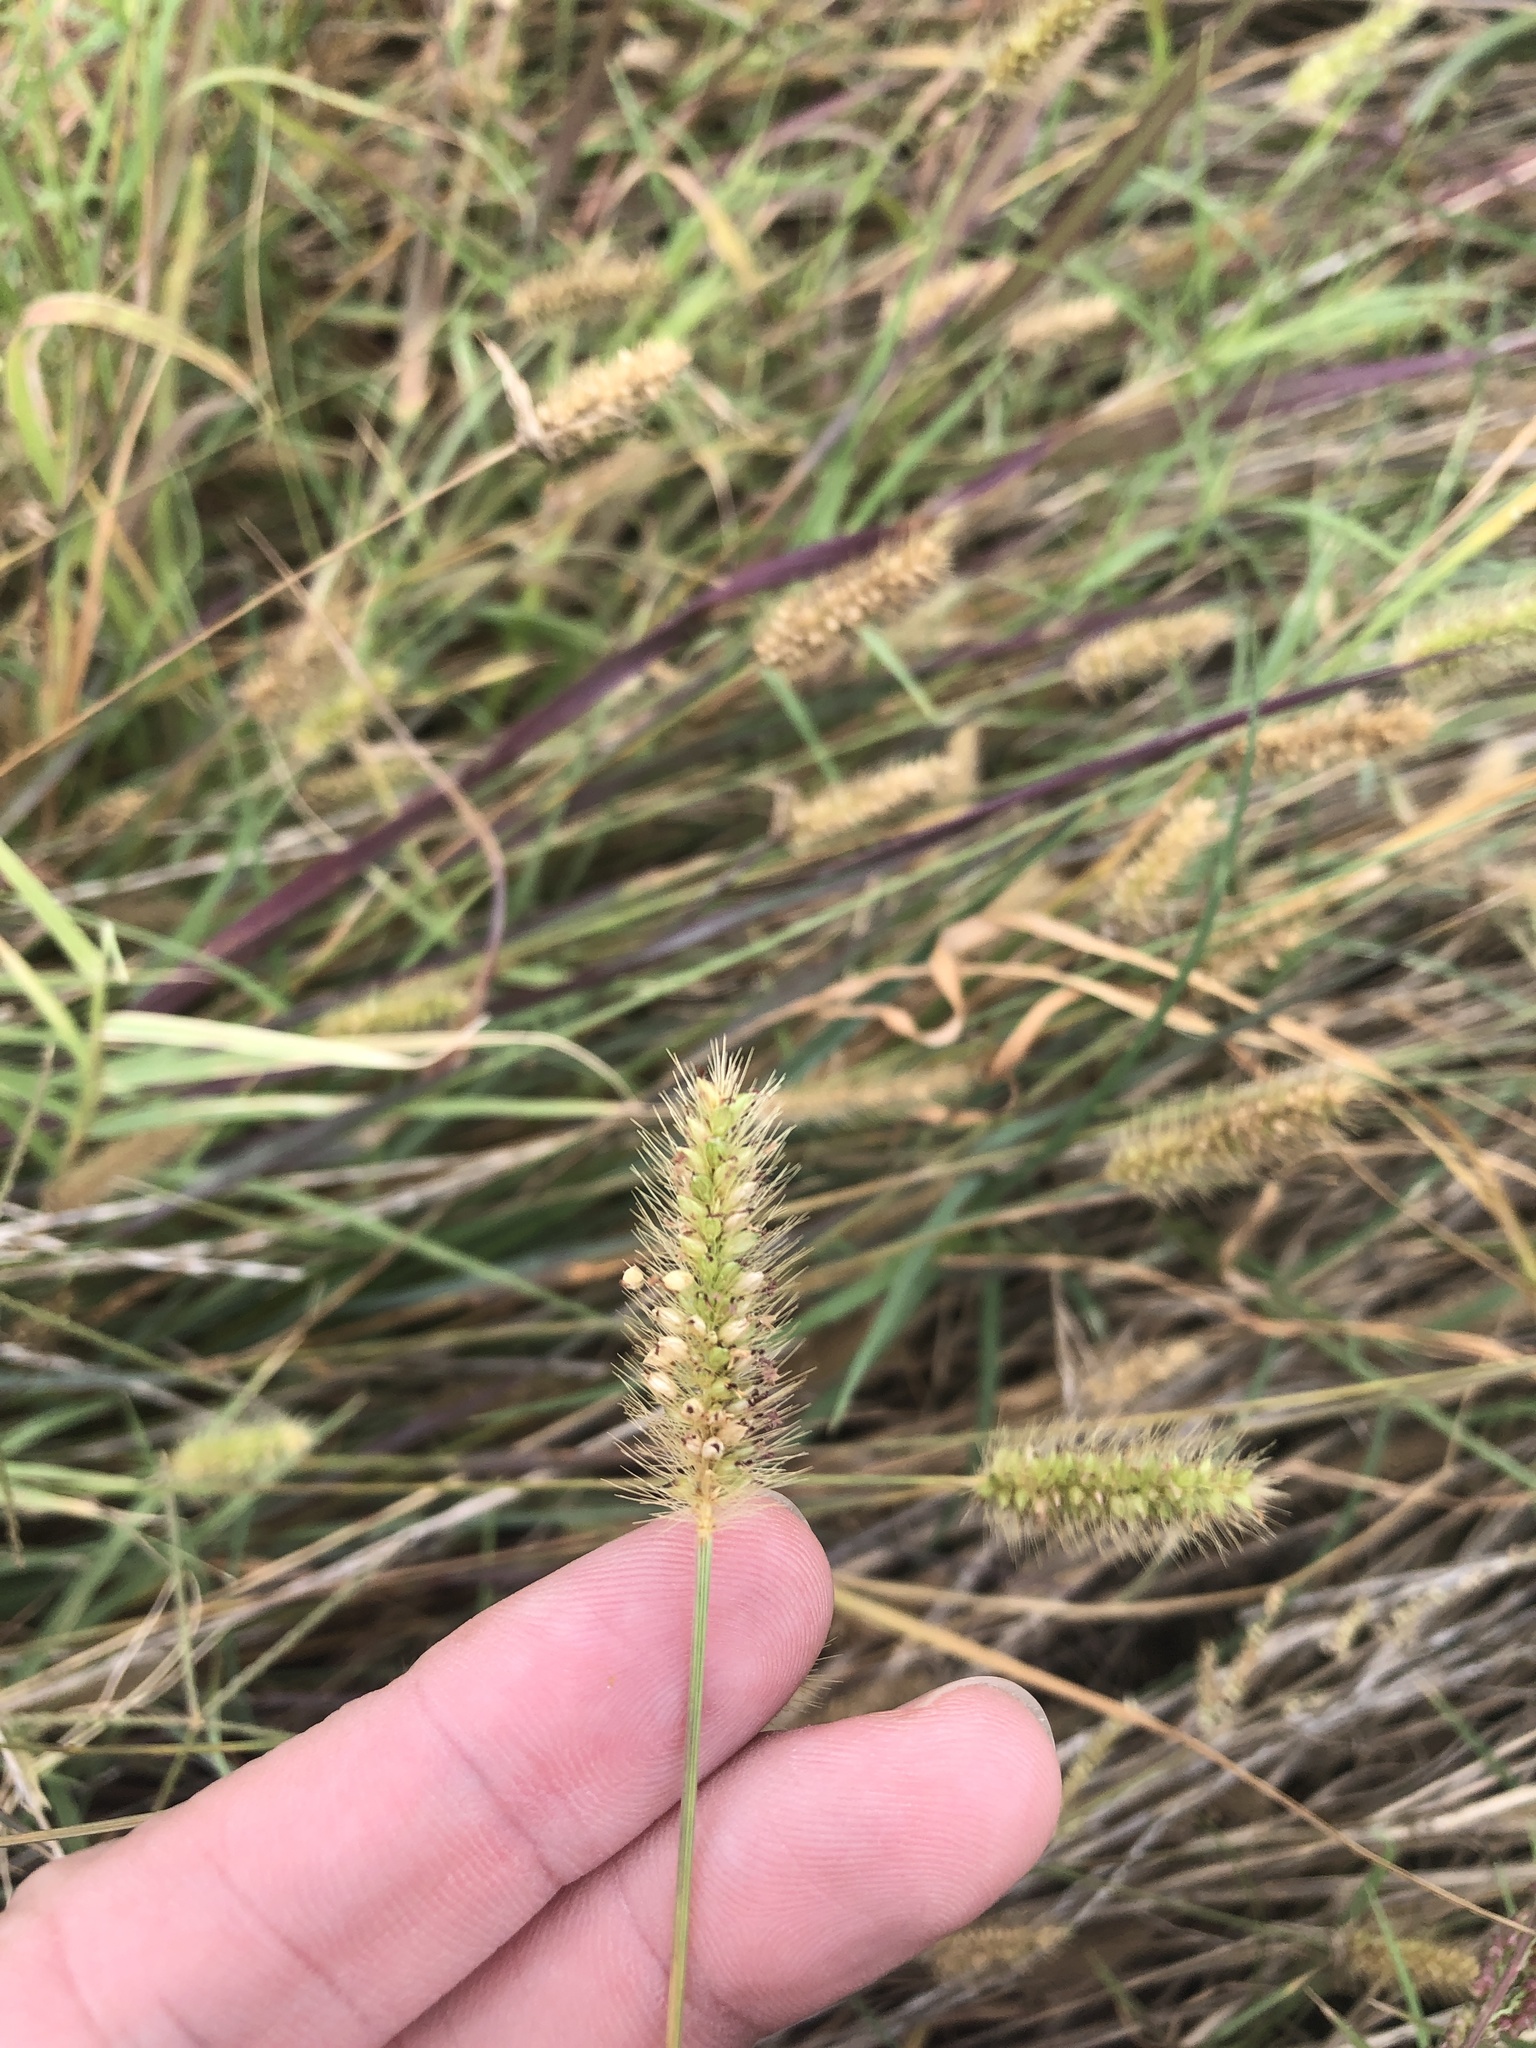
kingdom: Plantae
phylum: Tracheophyta
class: Liliopsida
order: Poales
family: Poaceae
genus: Setaria
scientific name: Setaria parviflora
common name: Knotroot bristle-grass
